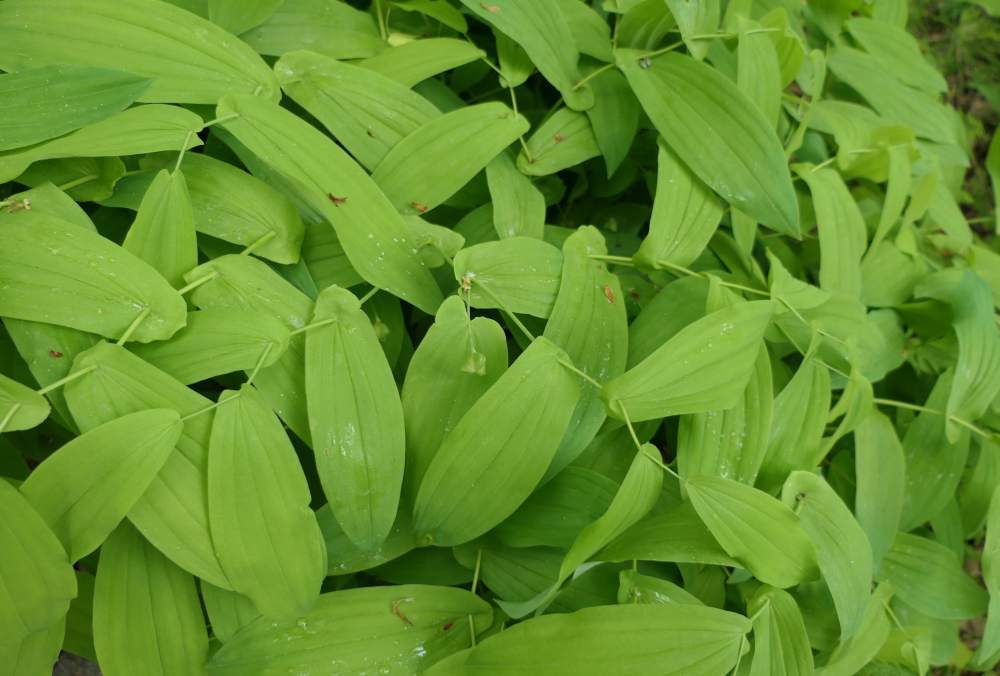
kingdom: Plantae
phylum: Tracheophyta
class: Liliopsida
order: Liliales
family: Colchicaceae
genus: Uvularia
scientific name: Uvularia grandiflora
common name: Bellwort
